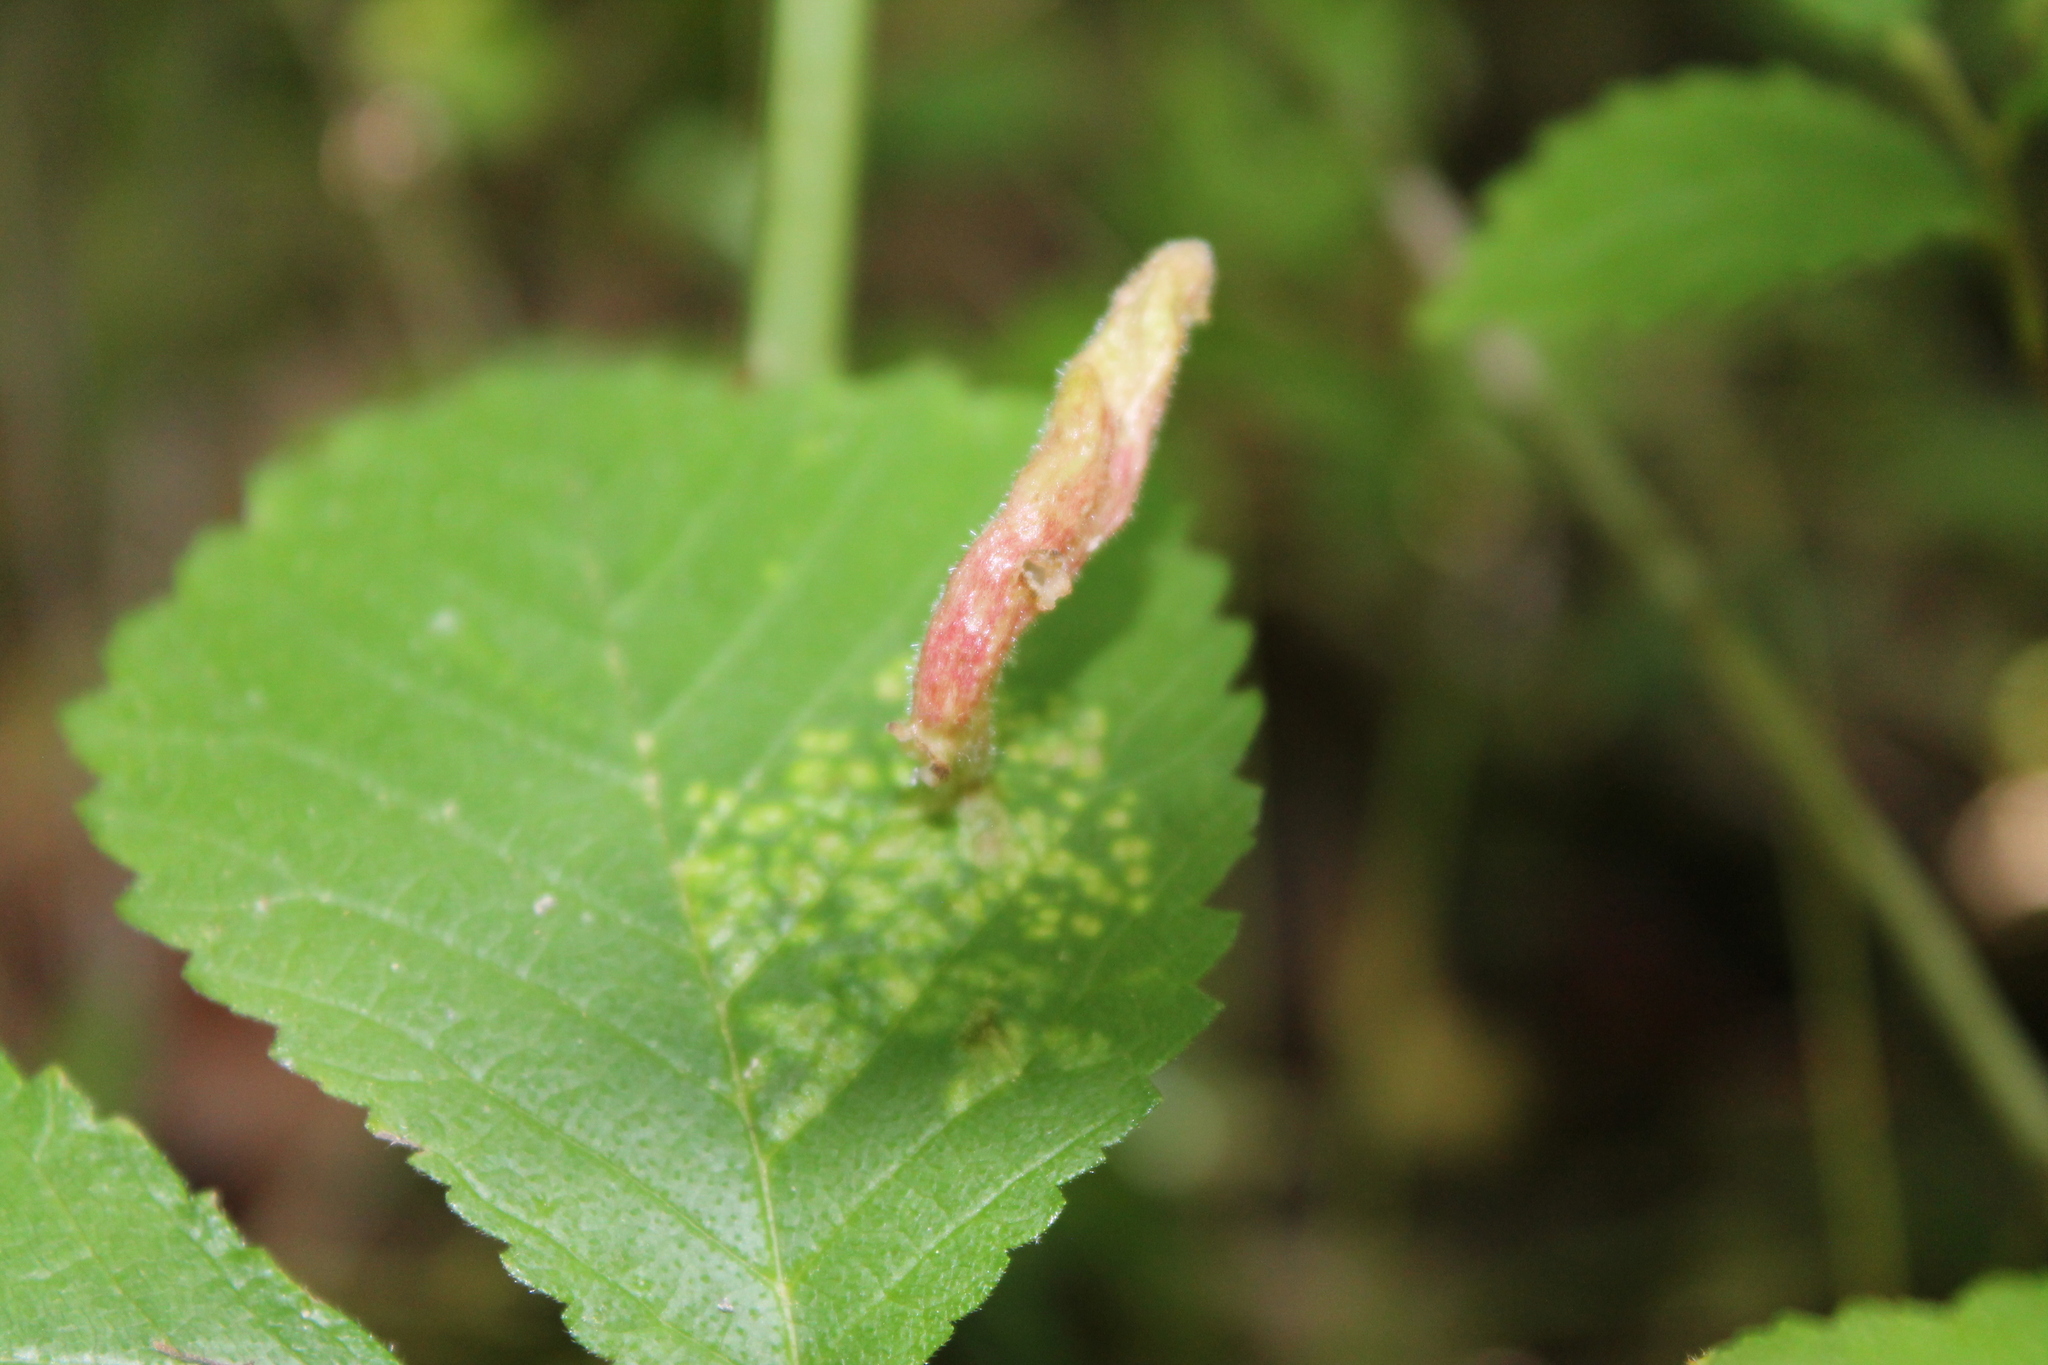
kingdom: Animalia
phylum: Arthropoda
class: Insecta
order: Hemiptera
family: Aphididae
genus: Tetraneura
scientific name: Tetraneura nigriabdominalis
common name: Aphid
